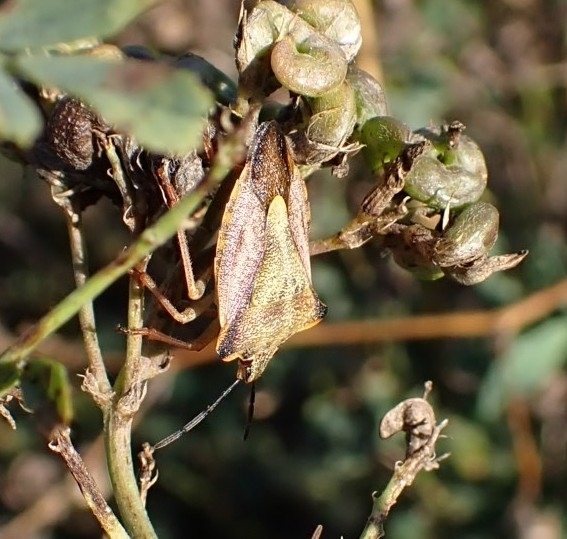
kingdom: Animalia
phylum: Arthropoda
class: Insecta
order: Hemiptera
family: Pentatomidae
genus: Carpocoris
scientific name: Carpocoris mediterraneus
